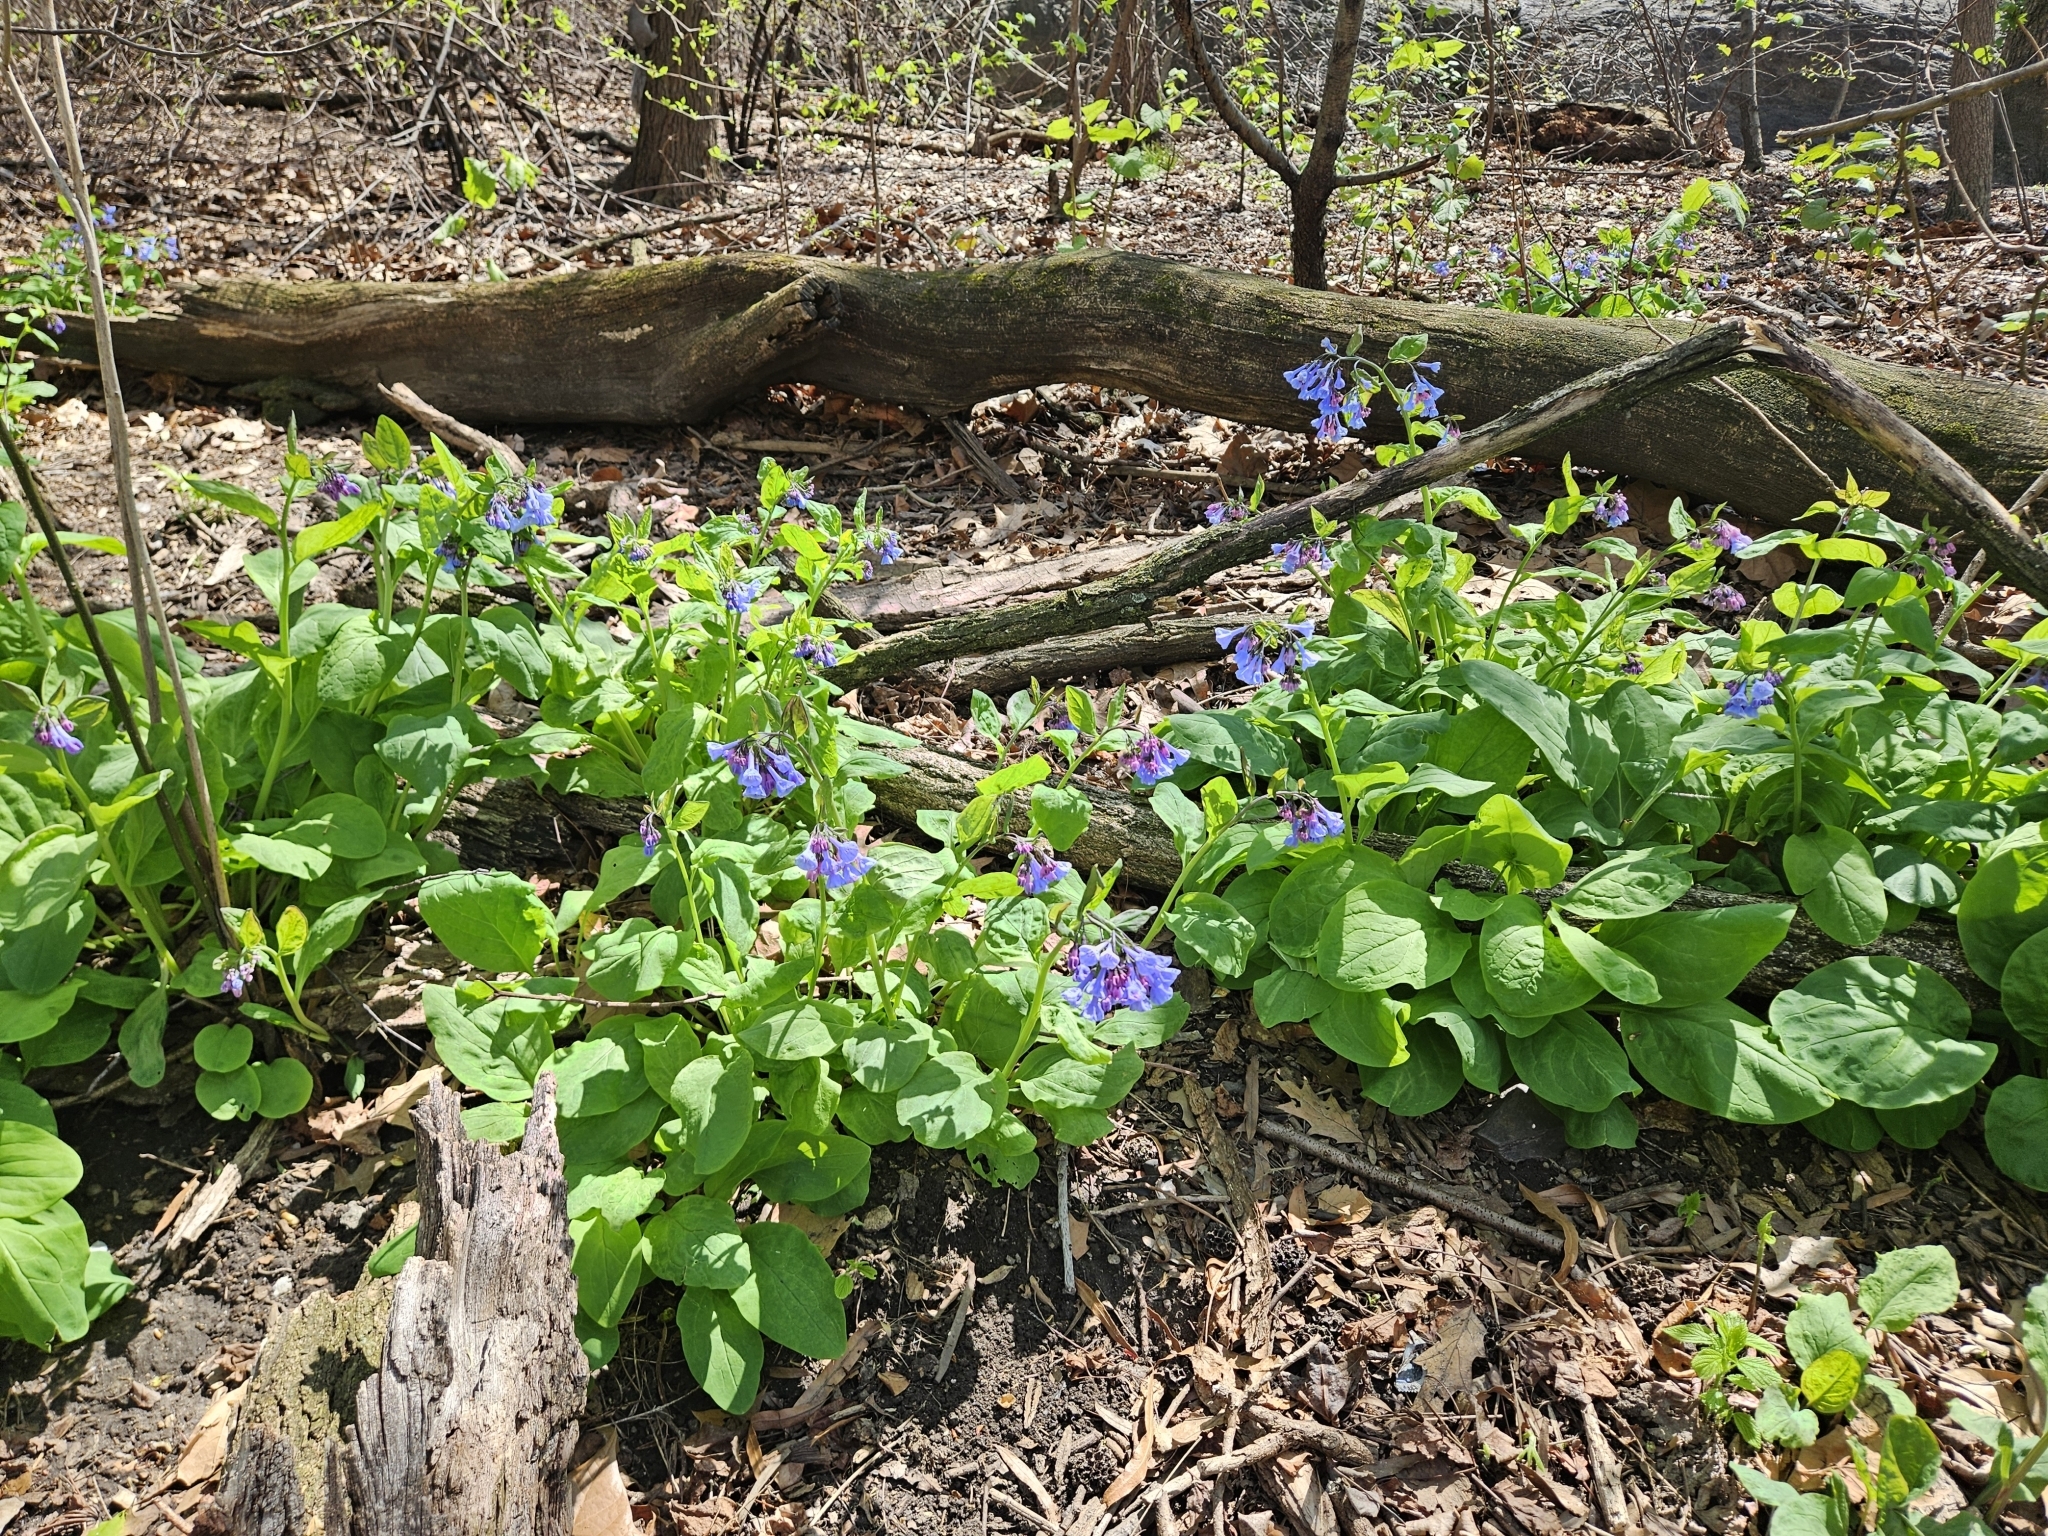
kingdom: Plantae
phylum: Tracheophyta
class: Magnoliopsida
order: Boraginales
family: Boraginaceae
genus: Mertensia
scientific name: Mertensia virginica
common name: Virginia bluebells
